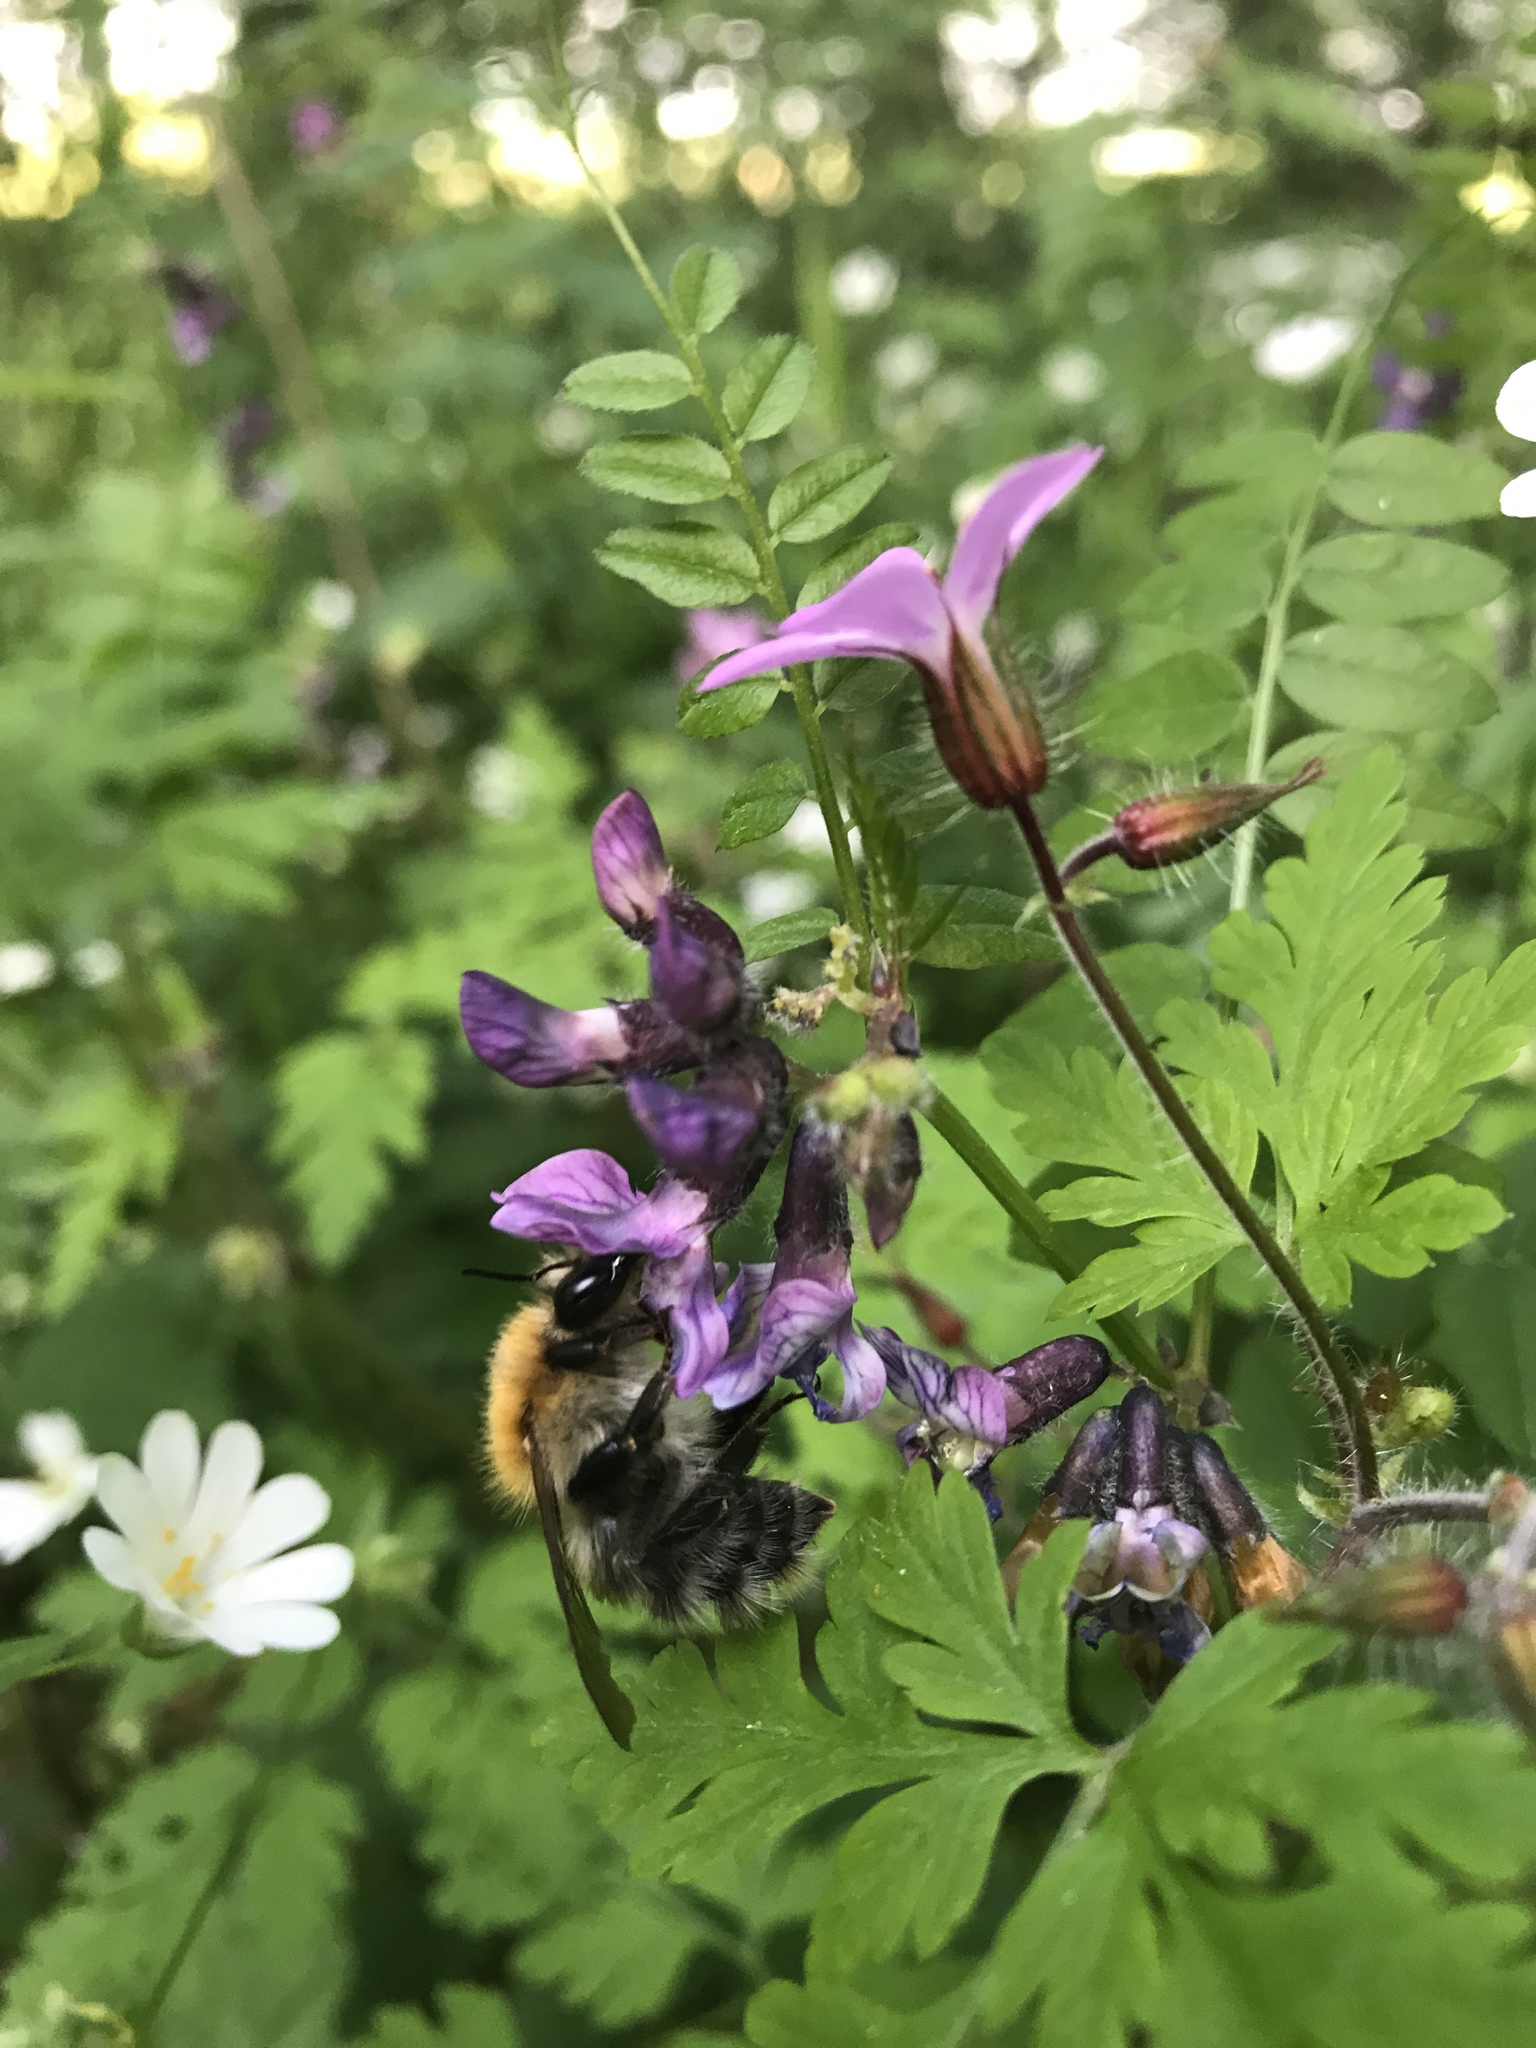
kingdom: Animalia
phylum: Arthropoda
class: Insecta
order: Hymenoptera
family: Apidae
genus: Bombus
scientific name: Bombus pascuorum
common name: Common carder bee
